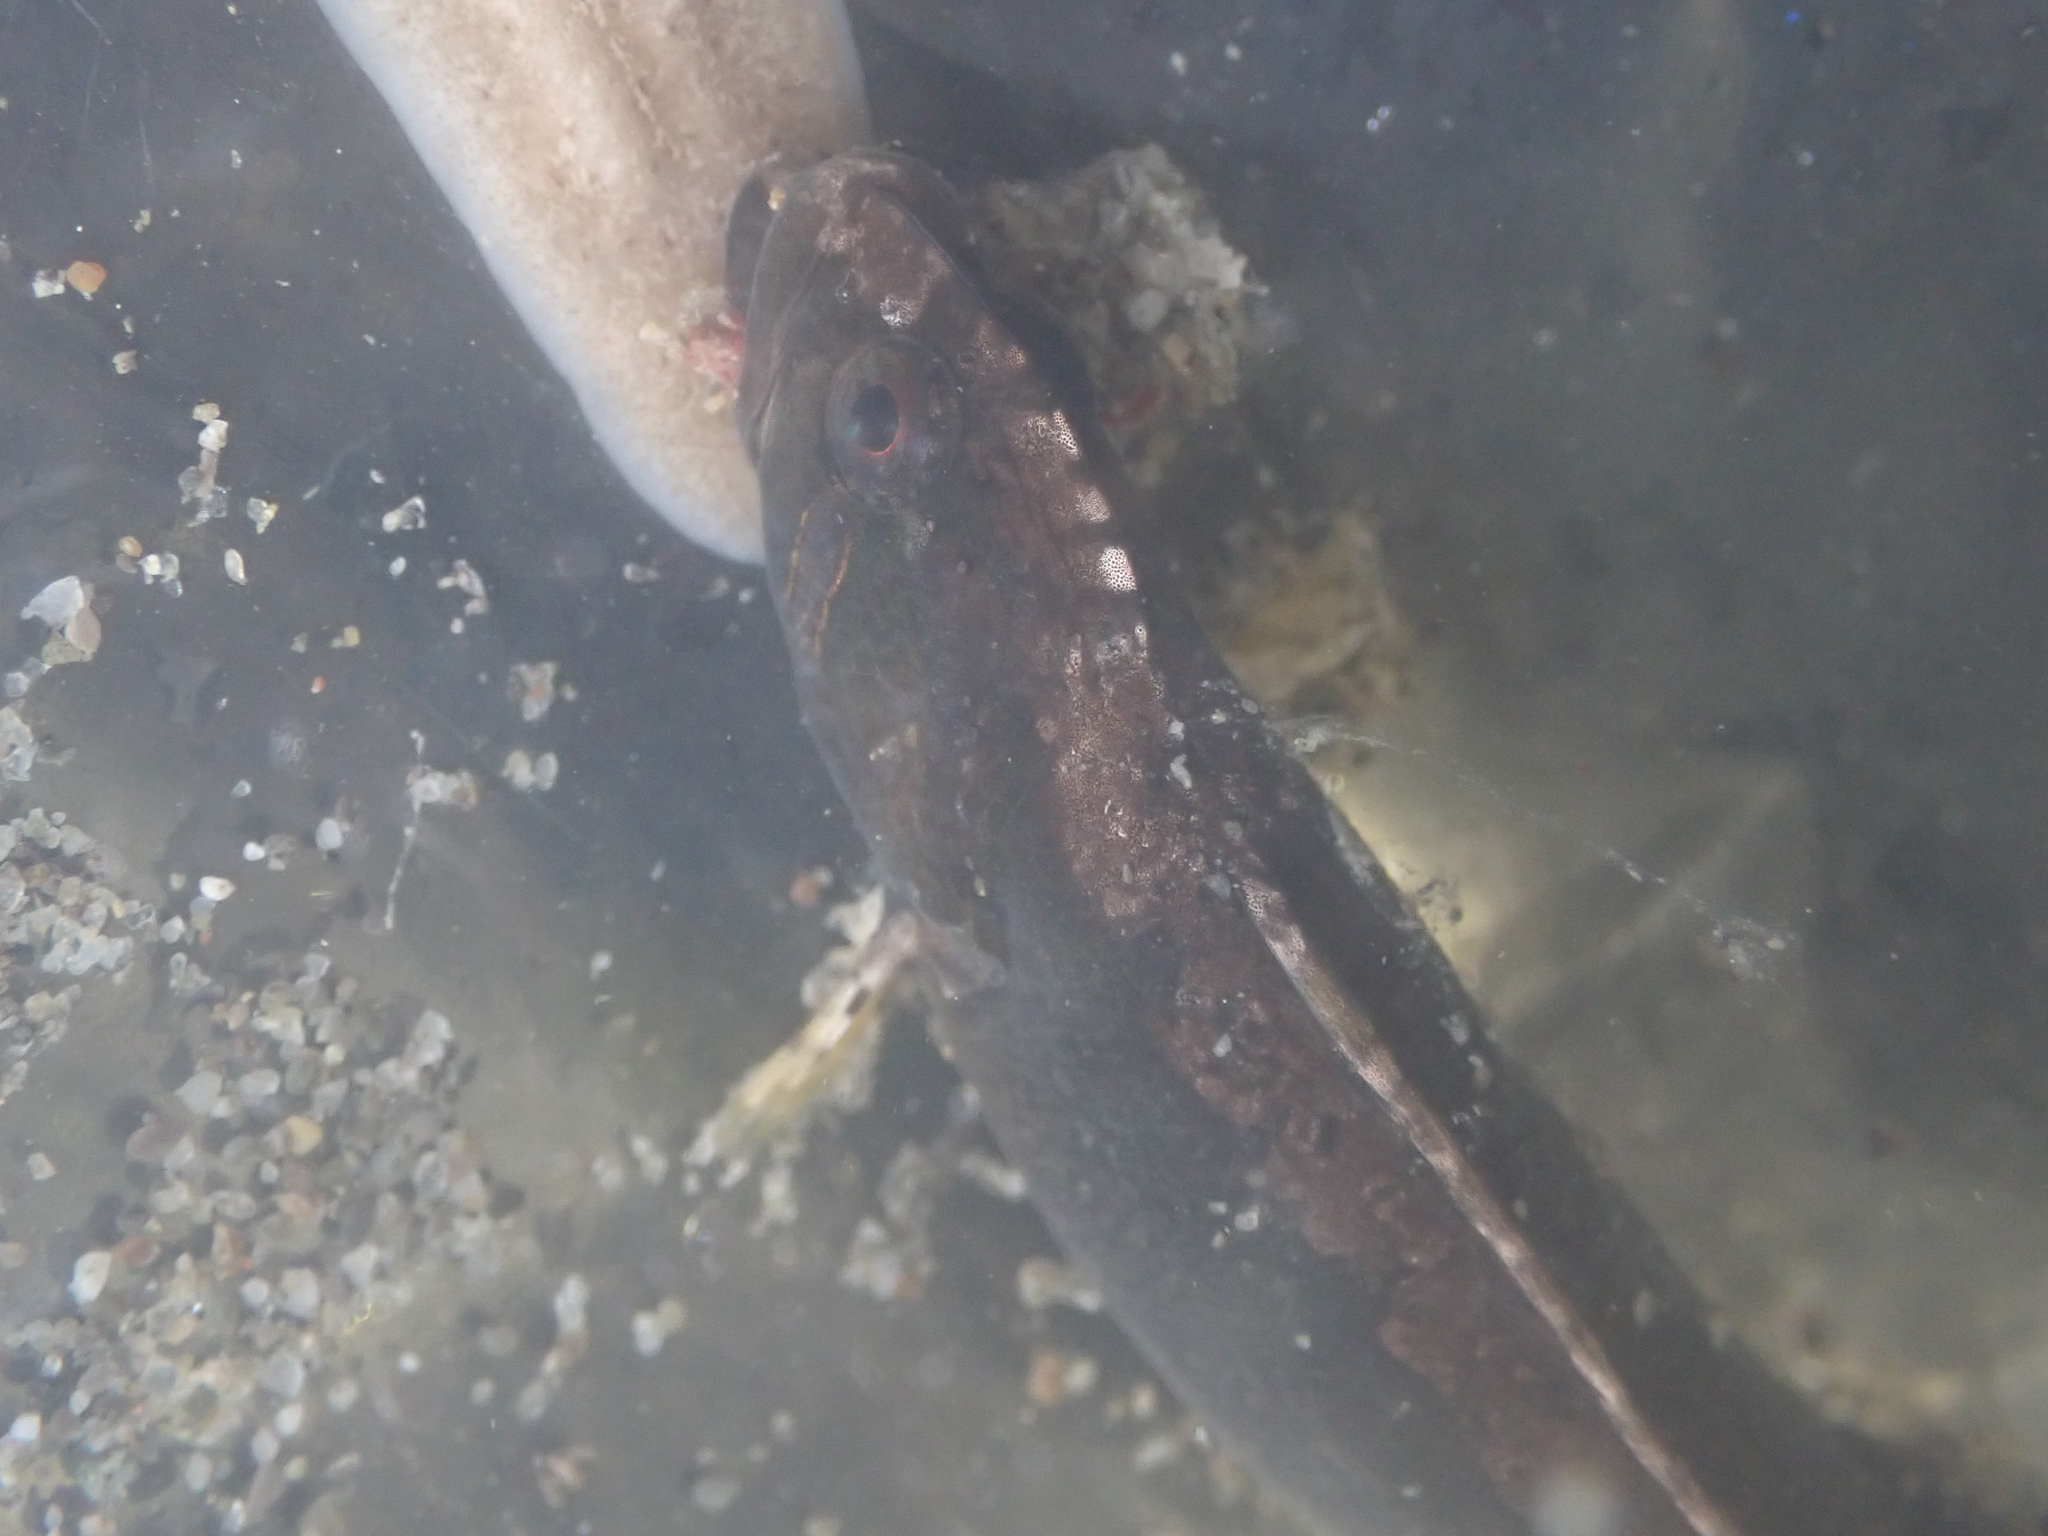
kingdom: Animalia
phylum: Chordata
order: Perciformes
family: Stichaeidae
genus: Anoplarchus
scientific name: Anoplarchus purpurescens
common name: High cockscomb
